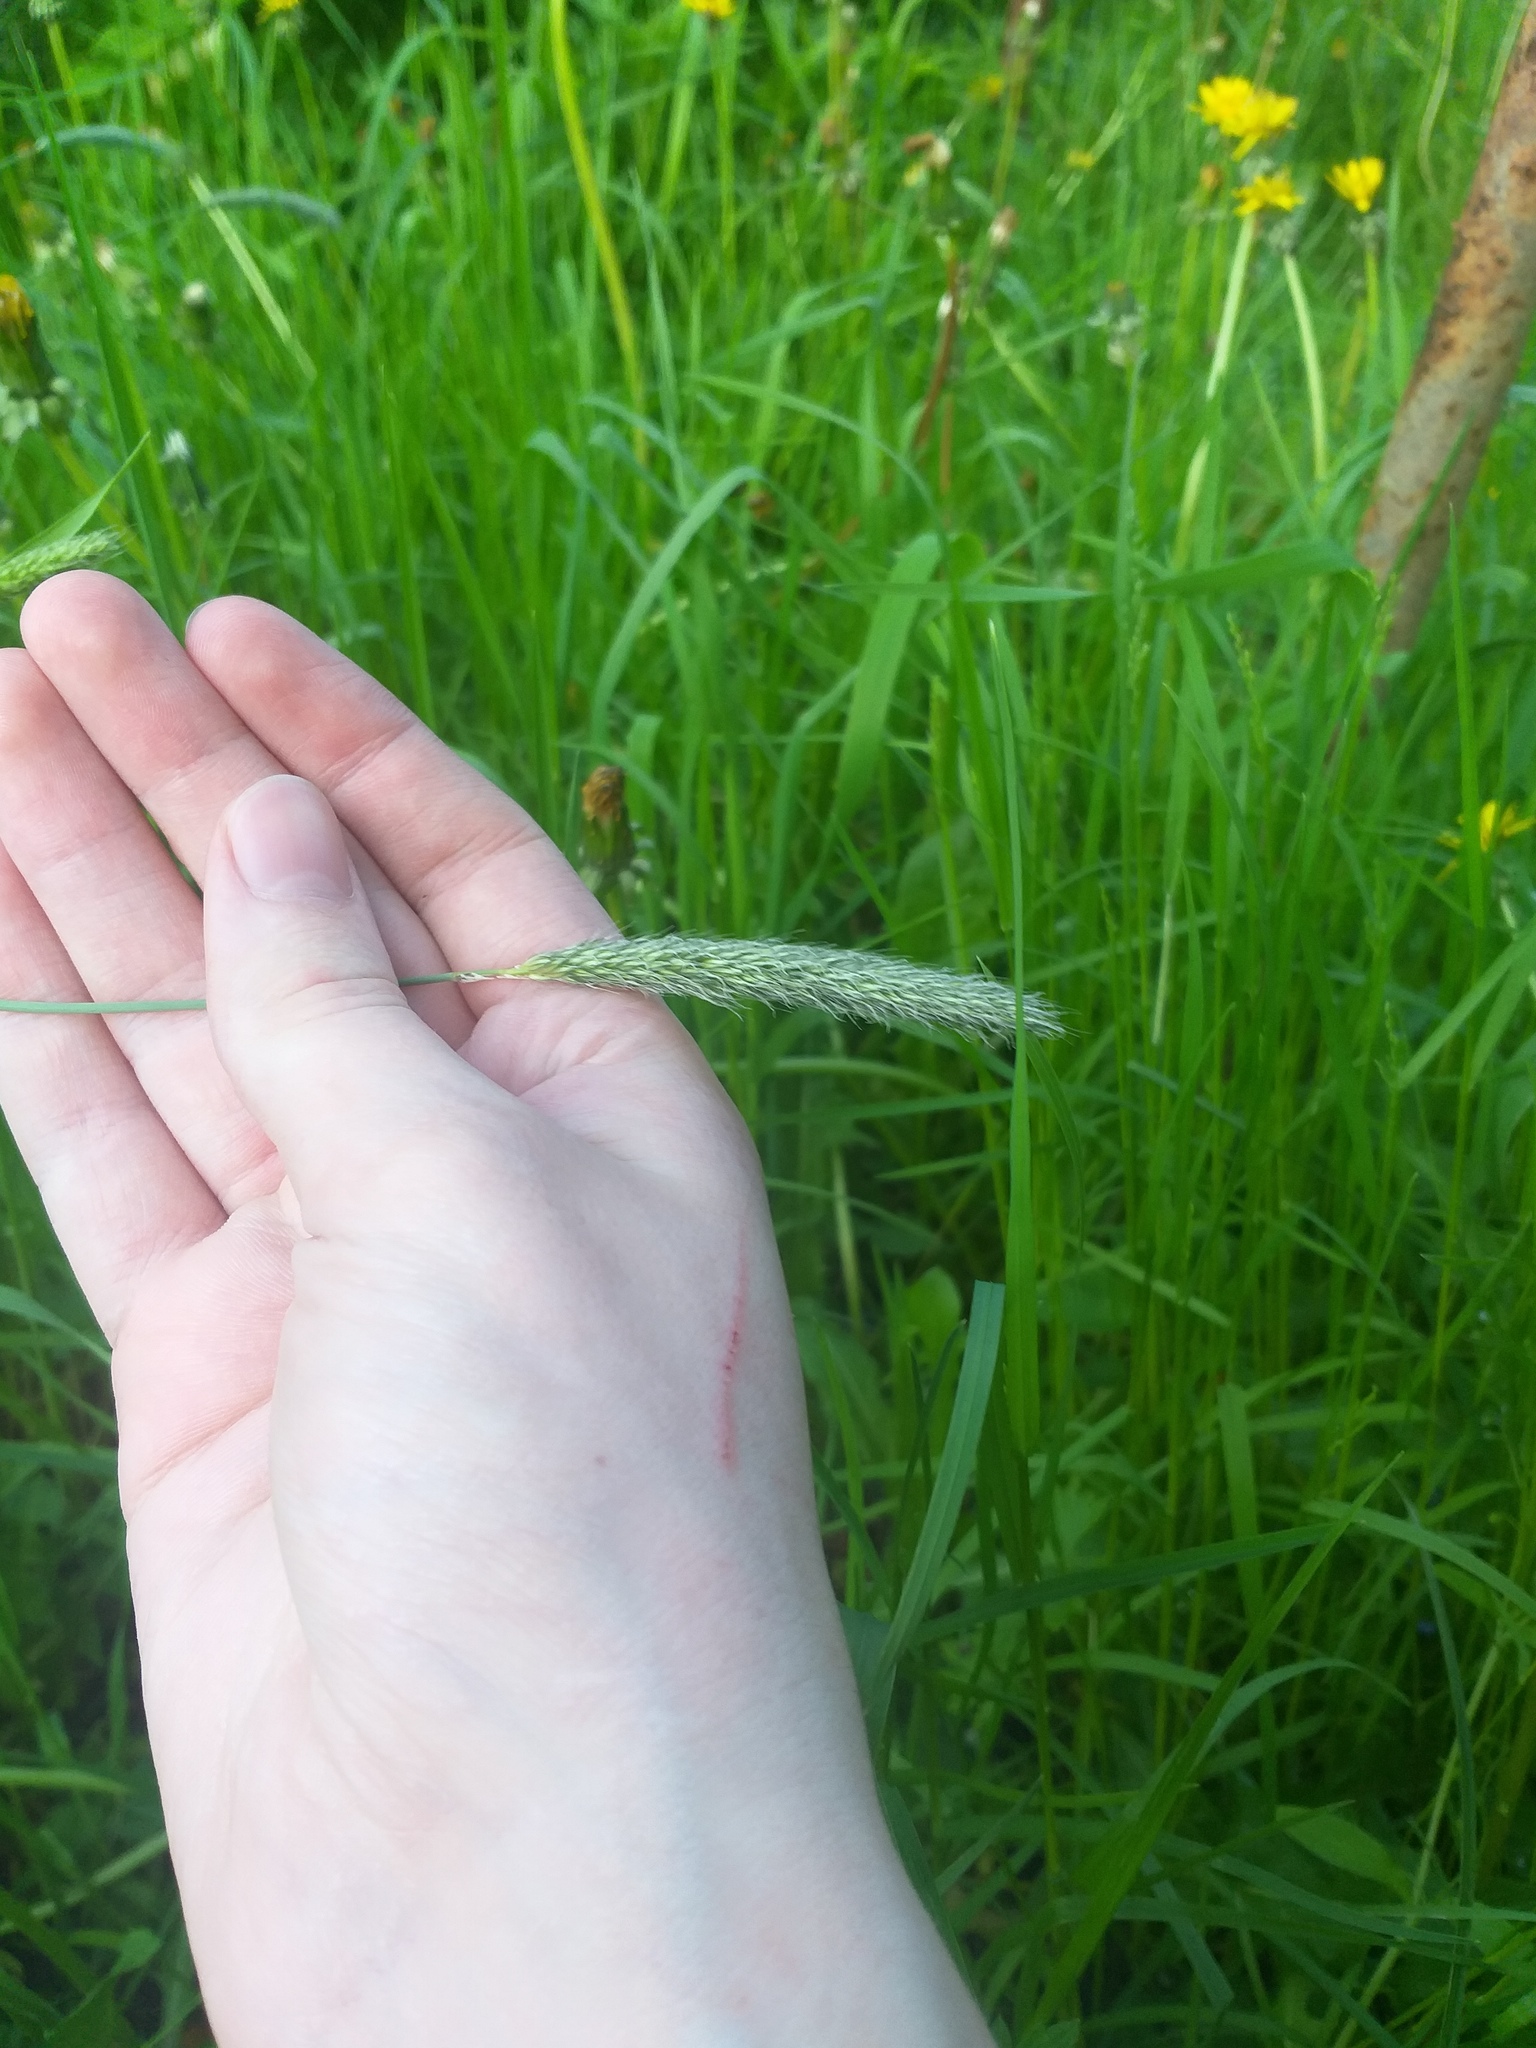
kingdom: Plantae
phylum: Tracheophyta
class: Liliopsida
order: Poales
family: Poaceae
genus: Alopecurus
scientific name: Alopecurus pratensis
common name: Meadow foxtail
